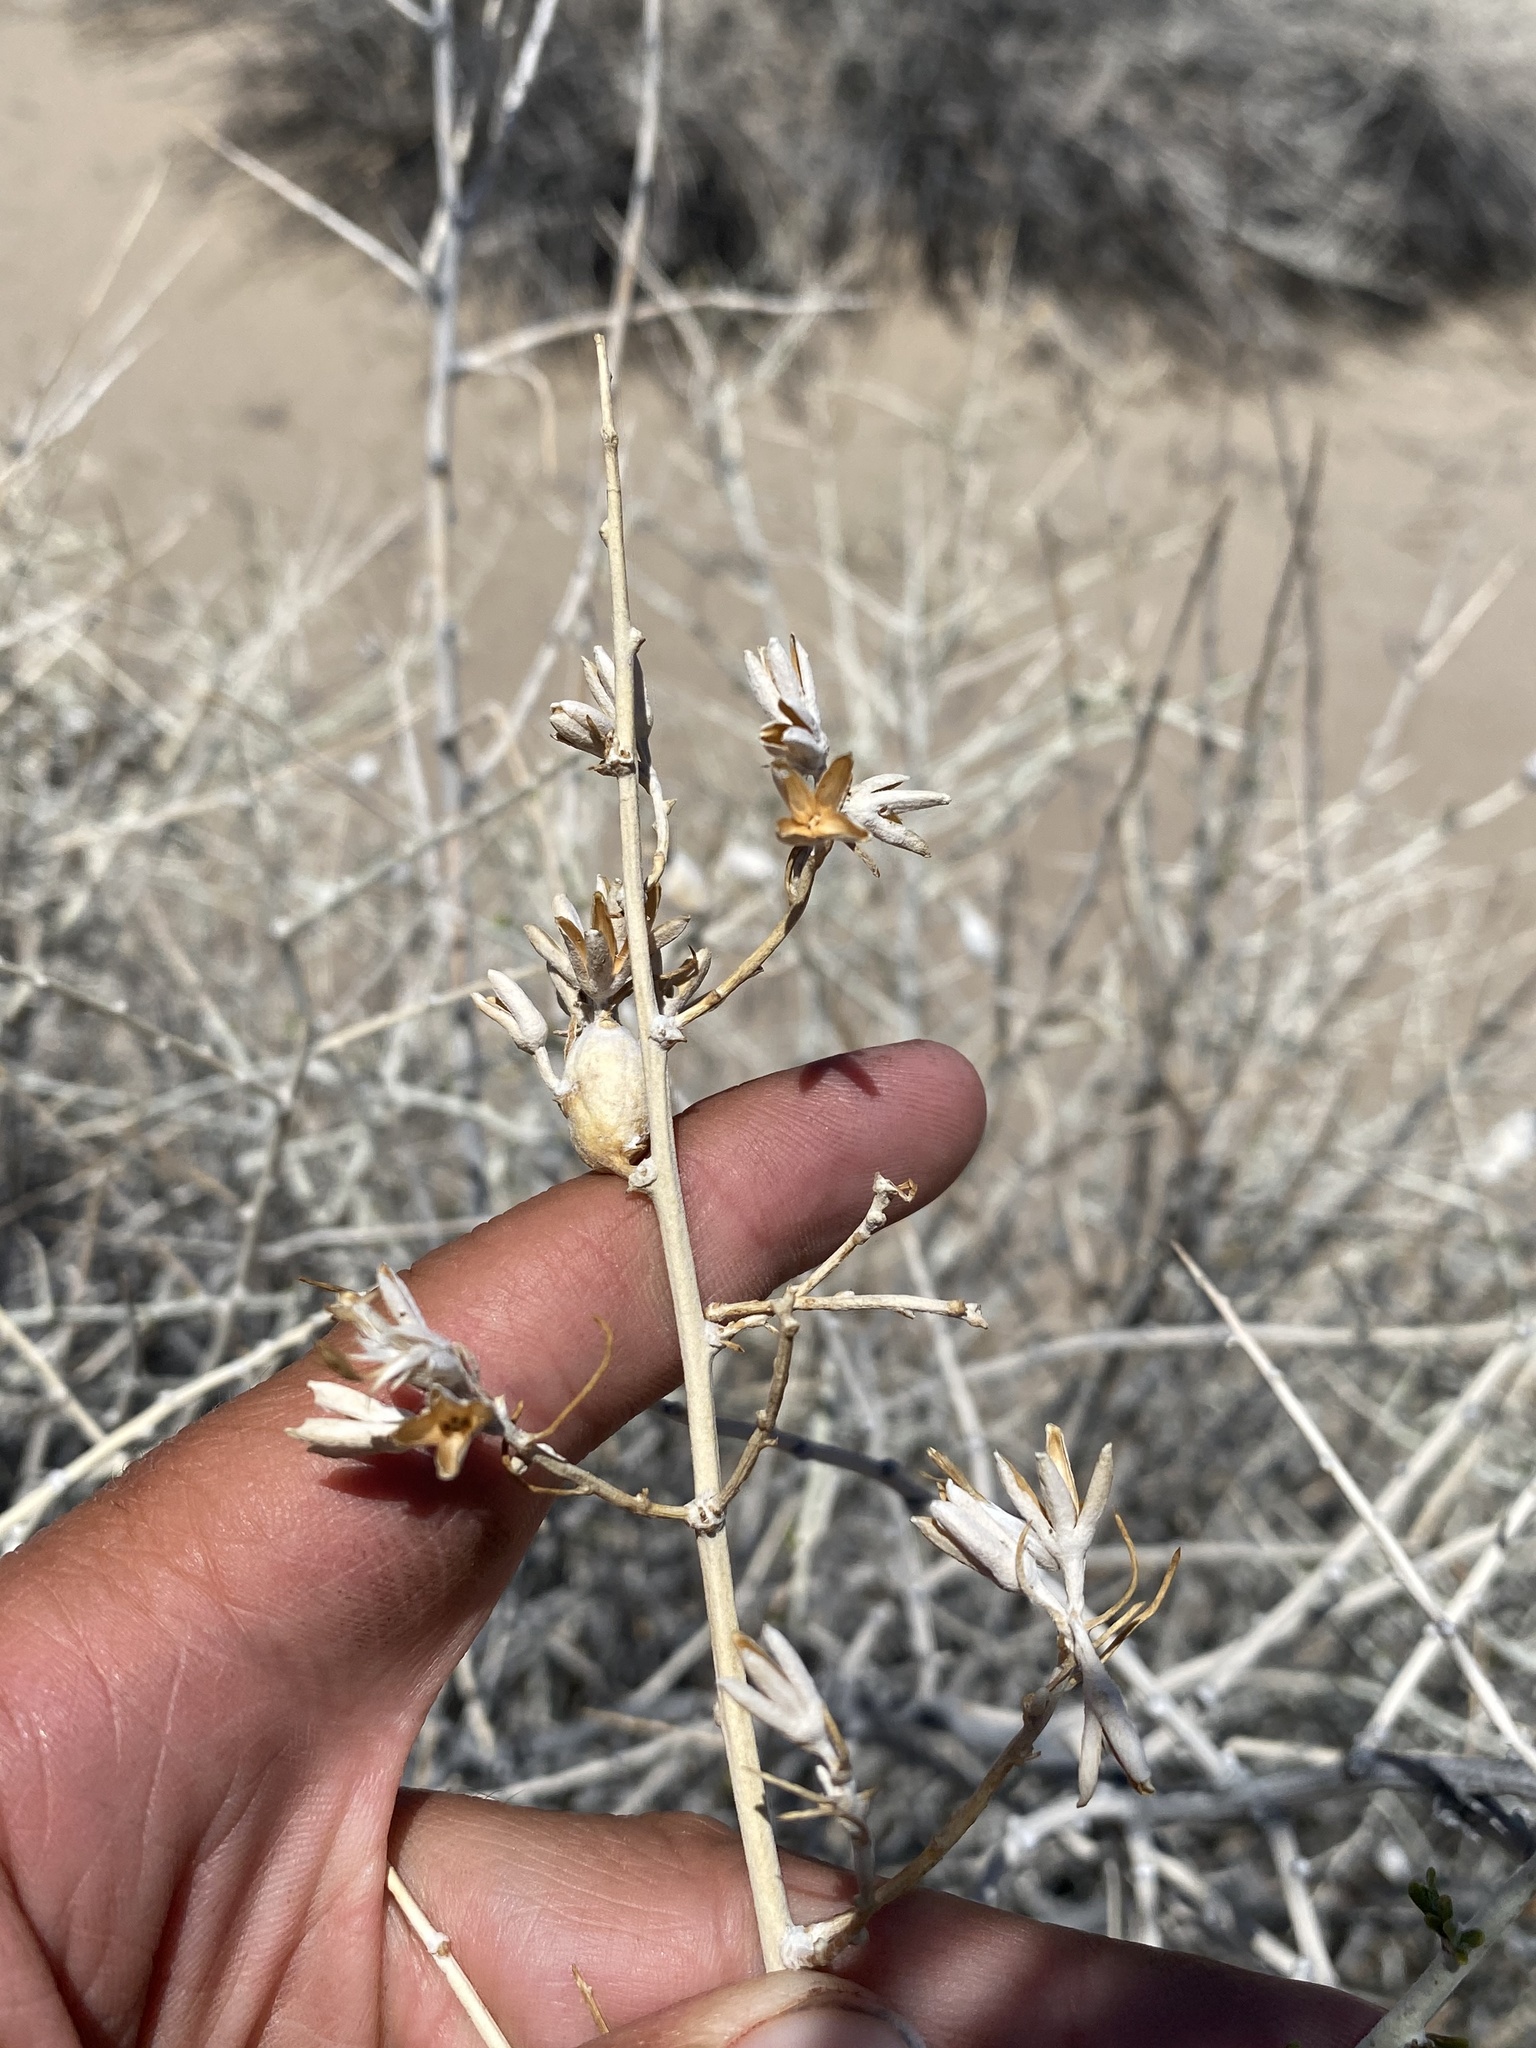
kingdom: Plantae
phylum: Tracheophyta
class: Magnoliopsida
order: Asterales
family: Asteraceae
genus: Tetradymia
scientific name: Tetradymia tetrameres
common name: Dune horsebrush
